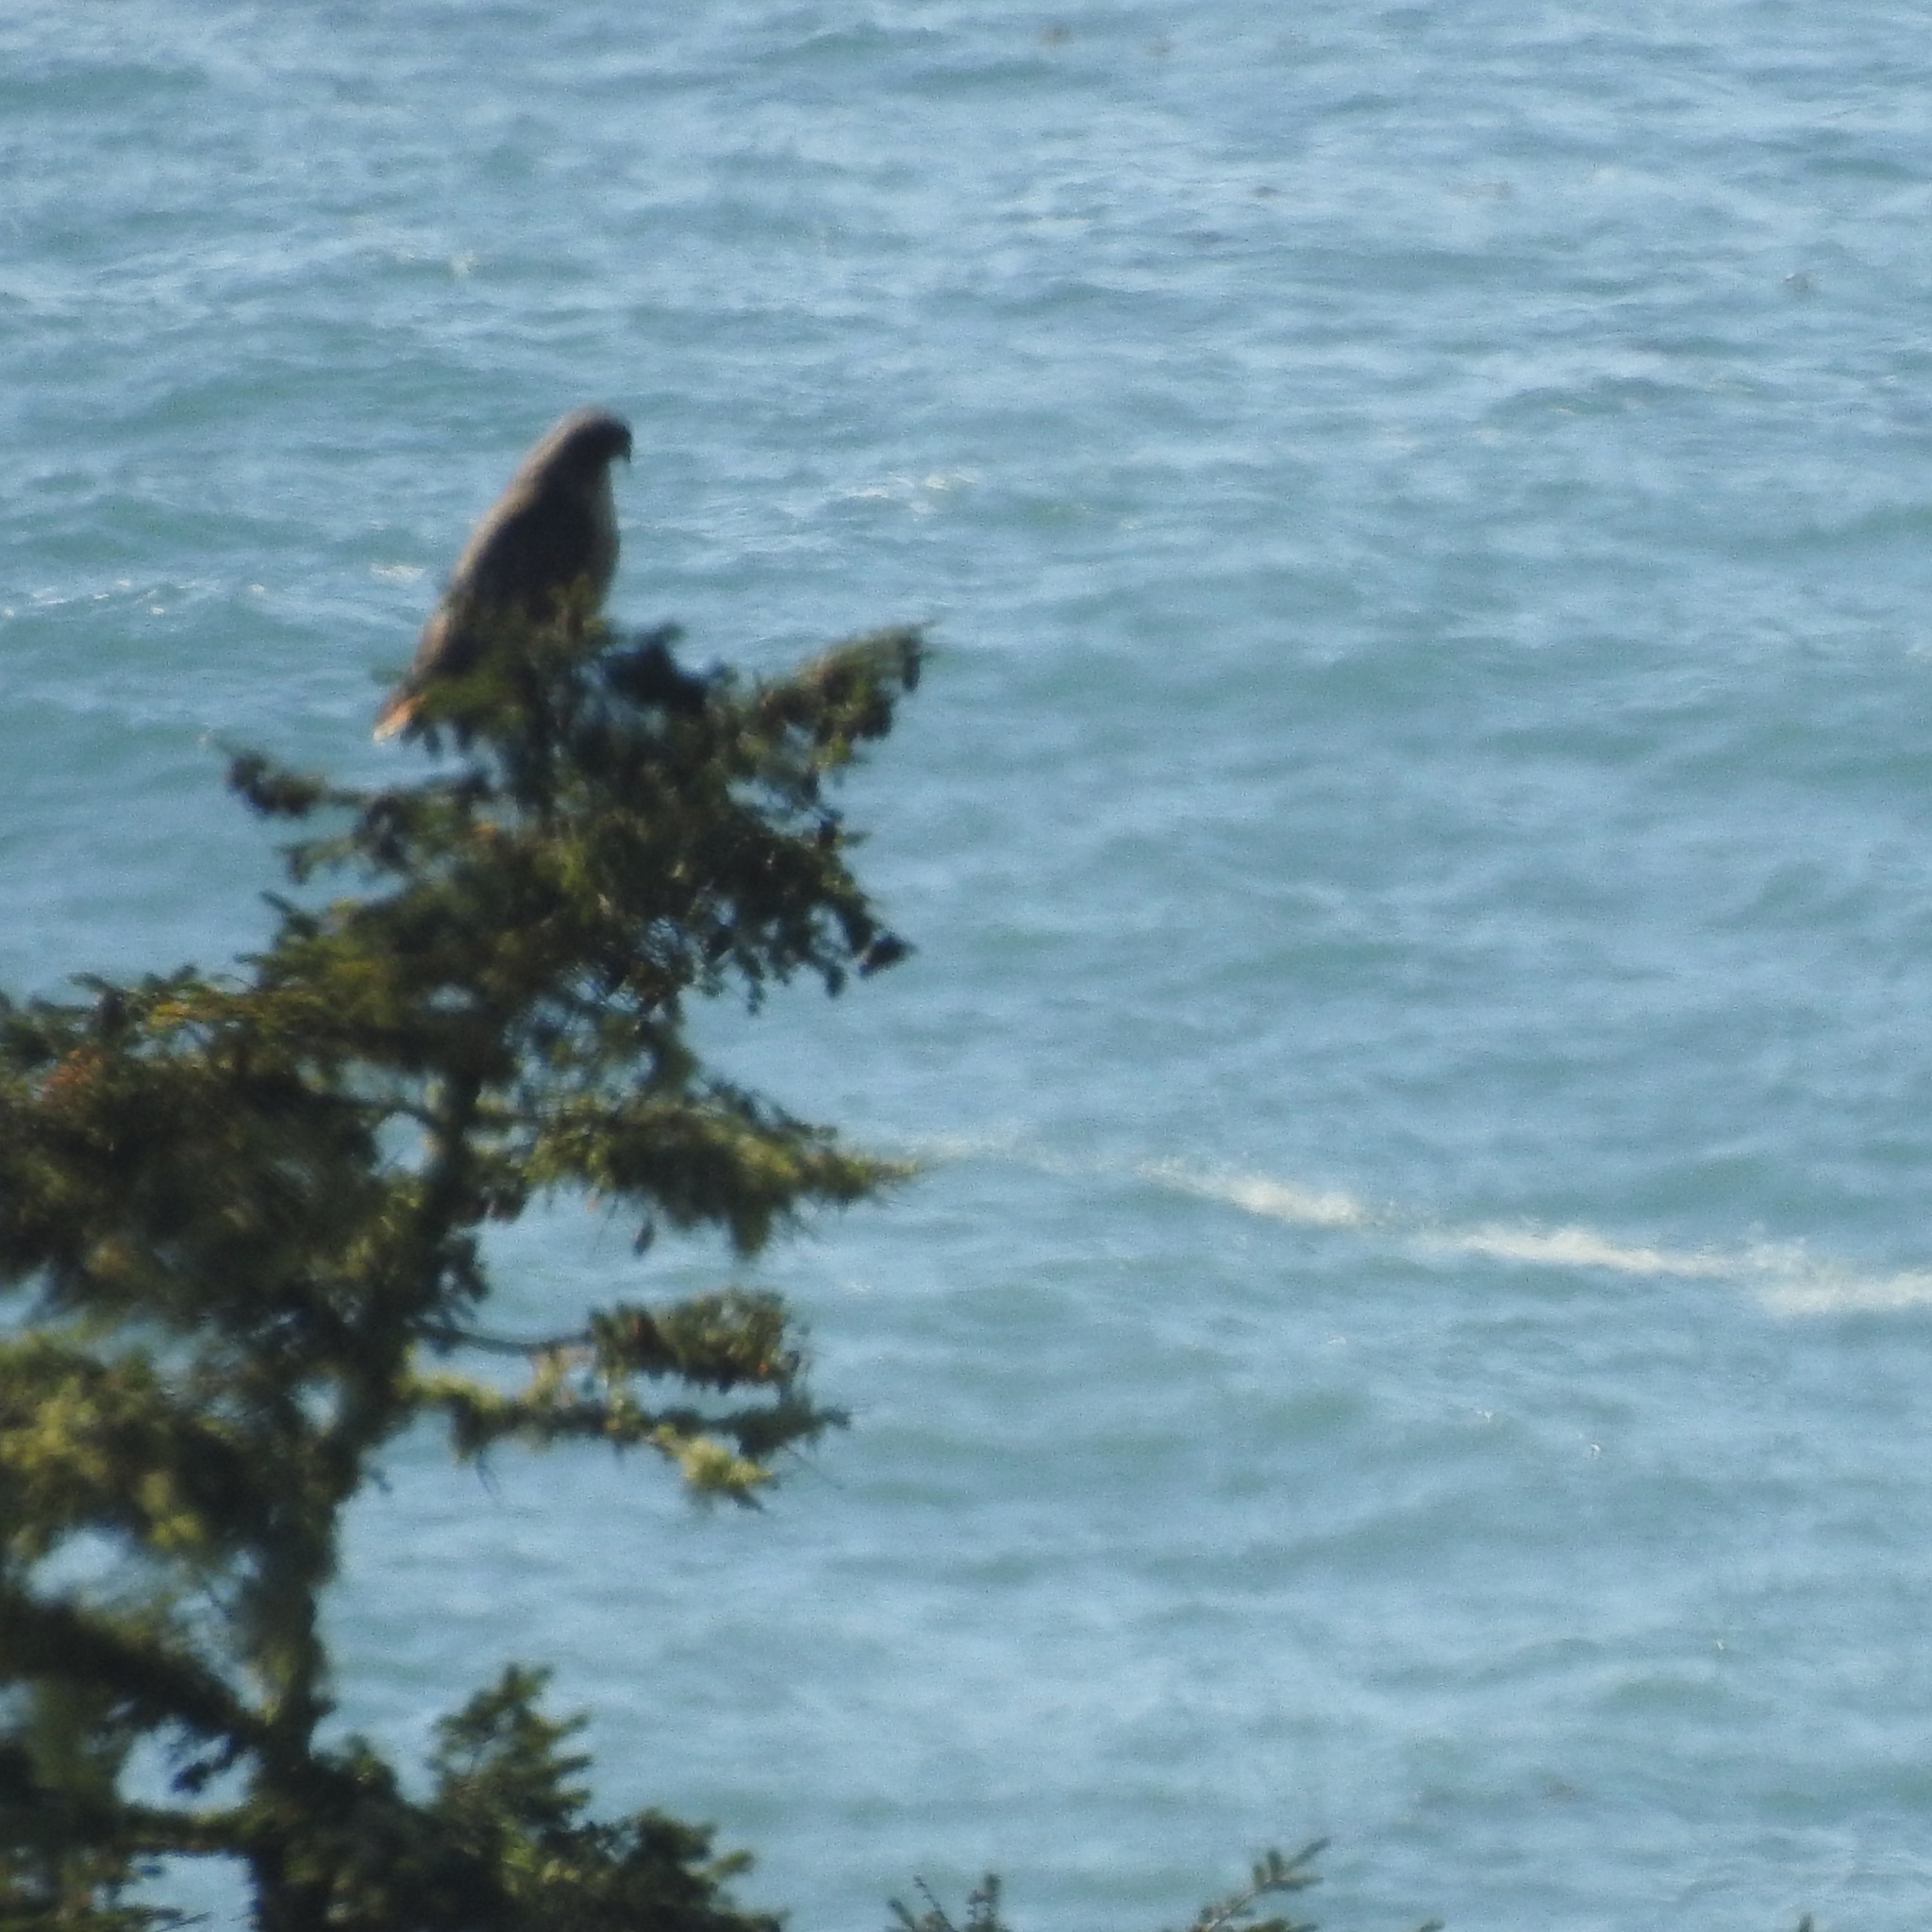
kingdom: Animalia
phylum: Chordata
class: Aves
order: Accipitriformes
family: Accipitridae
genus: Buteo
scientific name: Buteo jamaicensis
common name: Red-tailed hawk
